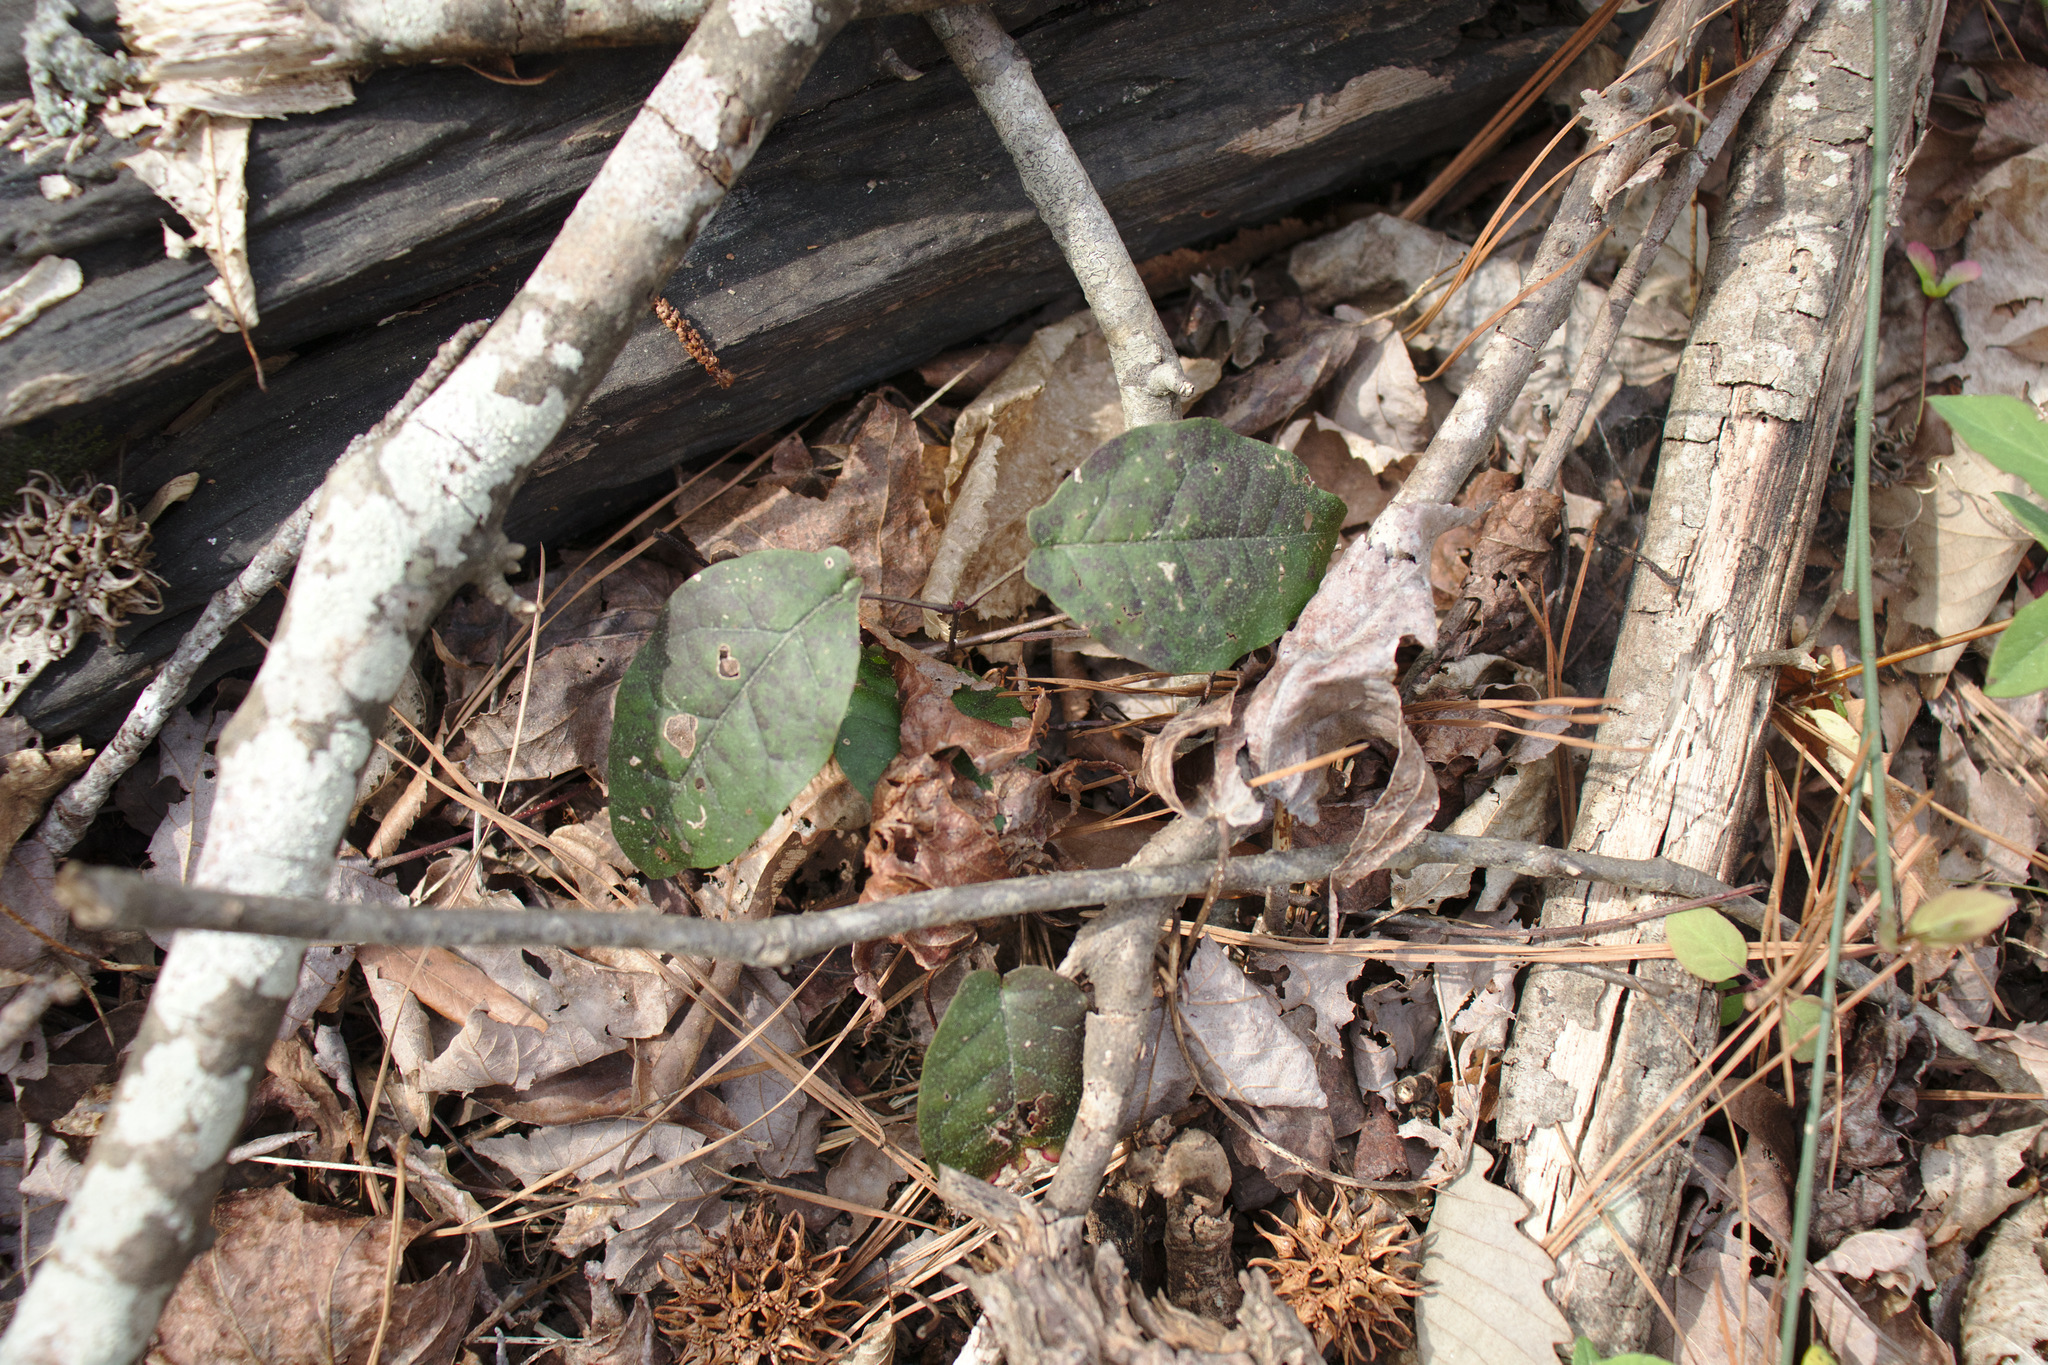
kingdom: Plantae
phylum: Tracheophyta
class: Magnoliopsida
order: Lamiales
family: Bignoniaceae
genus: Bignonia
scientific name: Bignonia capreolata
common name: Crossvine
